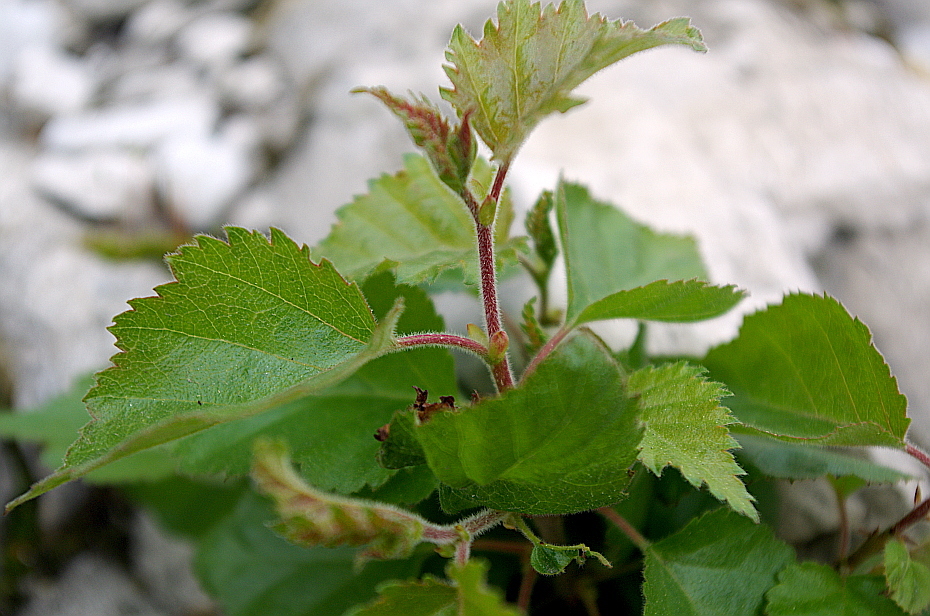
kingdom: Plantae
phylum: Tracheophyta
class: Magnoliopsida
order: Fagales
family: Betulaceae
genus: Betula
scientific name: Betula pubescens
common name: Downy birch
